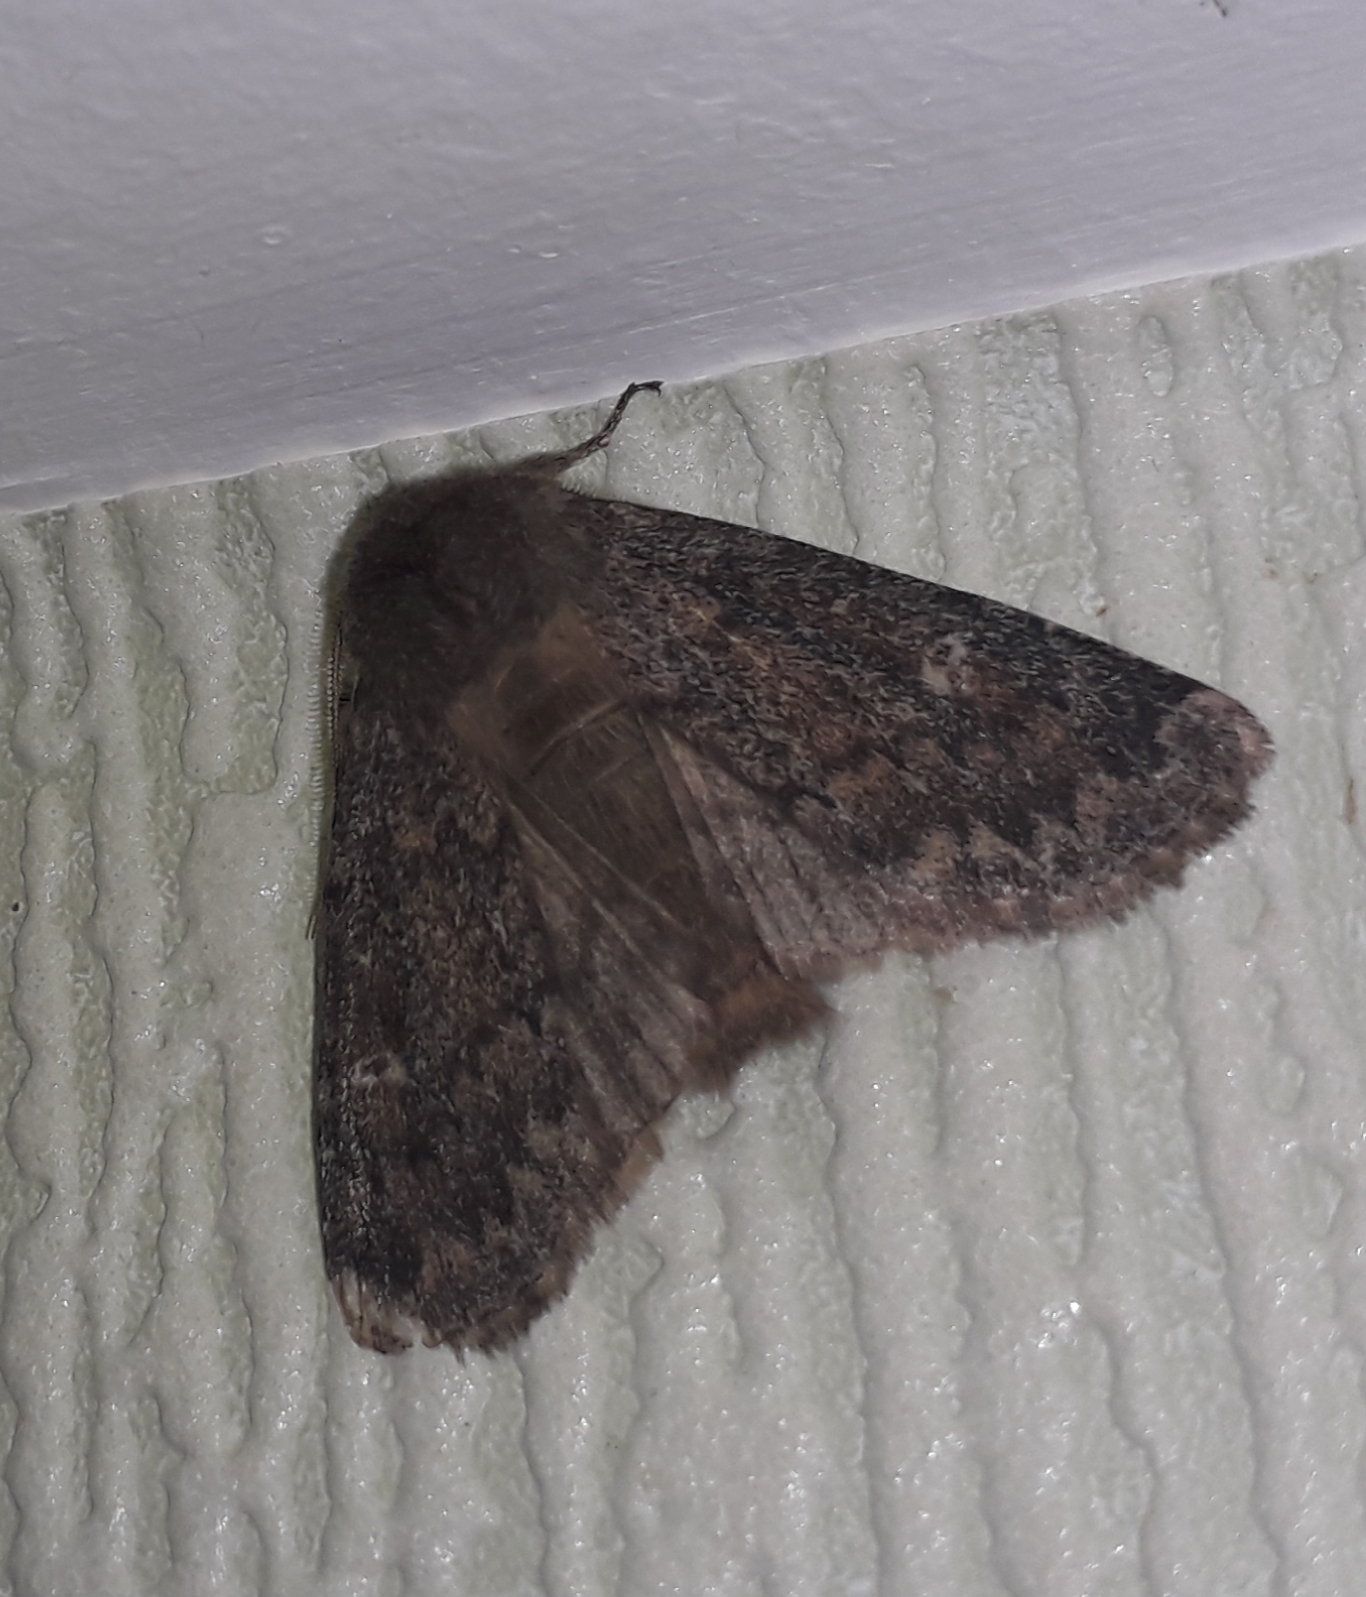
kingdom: Animalia
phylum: Arthropoda
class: Insecta
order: Lepidoptera
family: Noctuidae
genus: Dasypolia
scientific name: Dasypolia templi
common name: Brindled ochre
